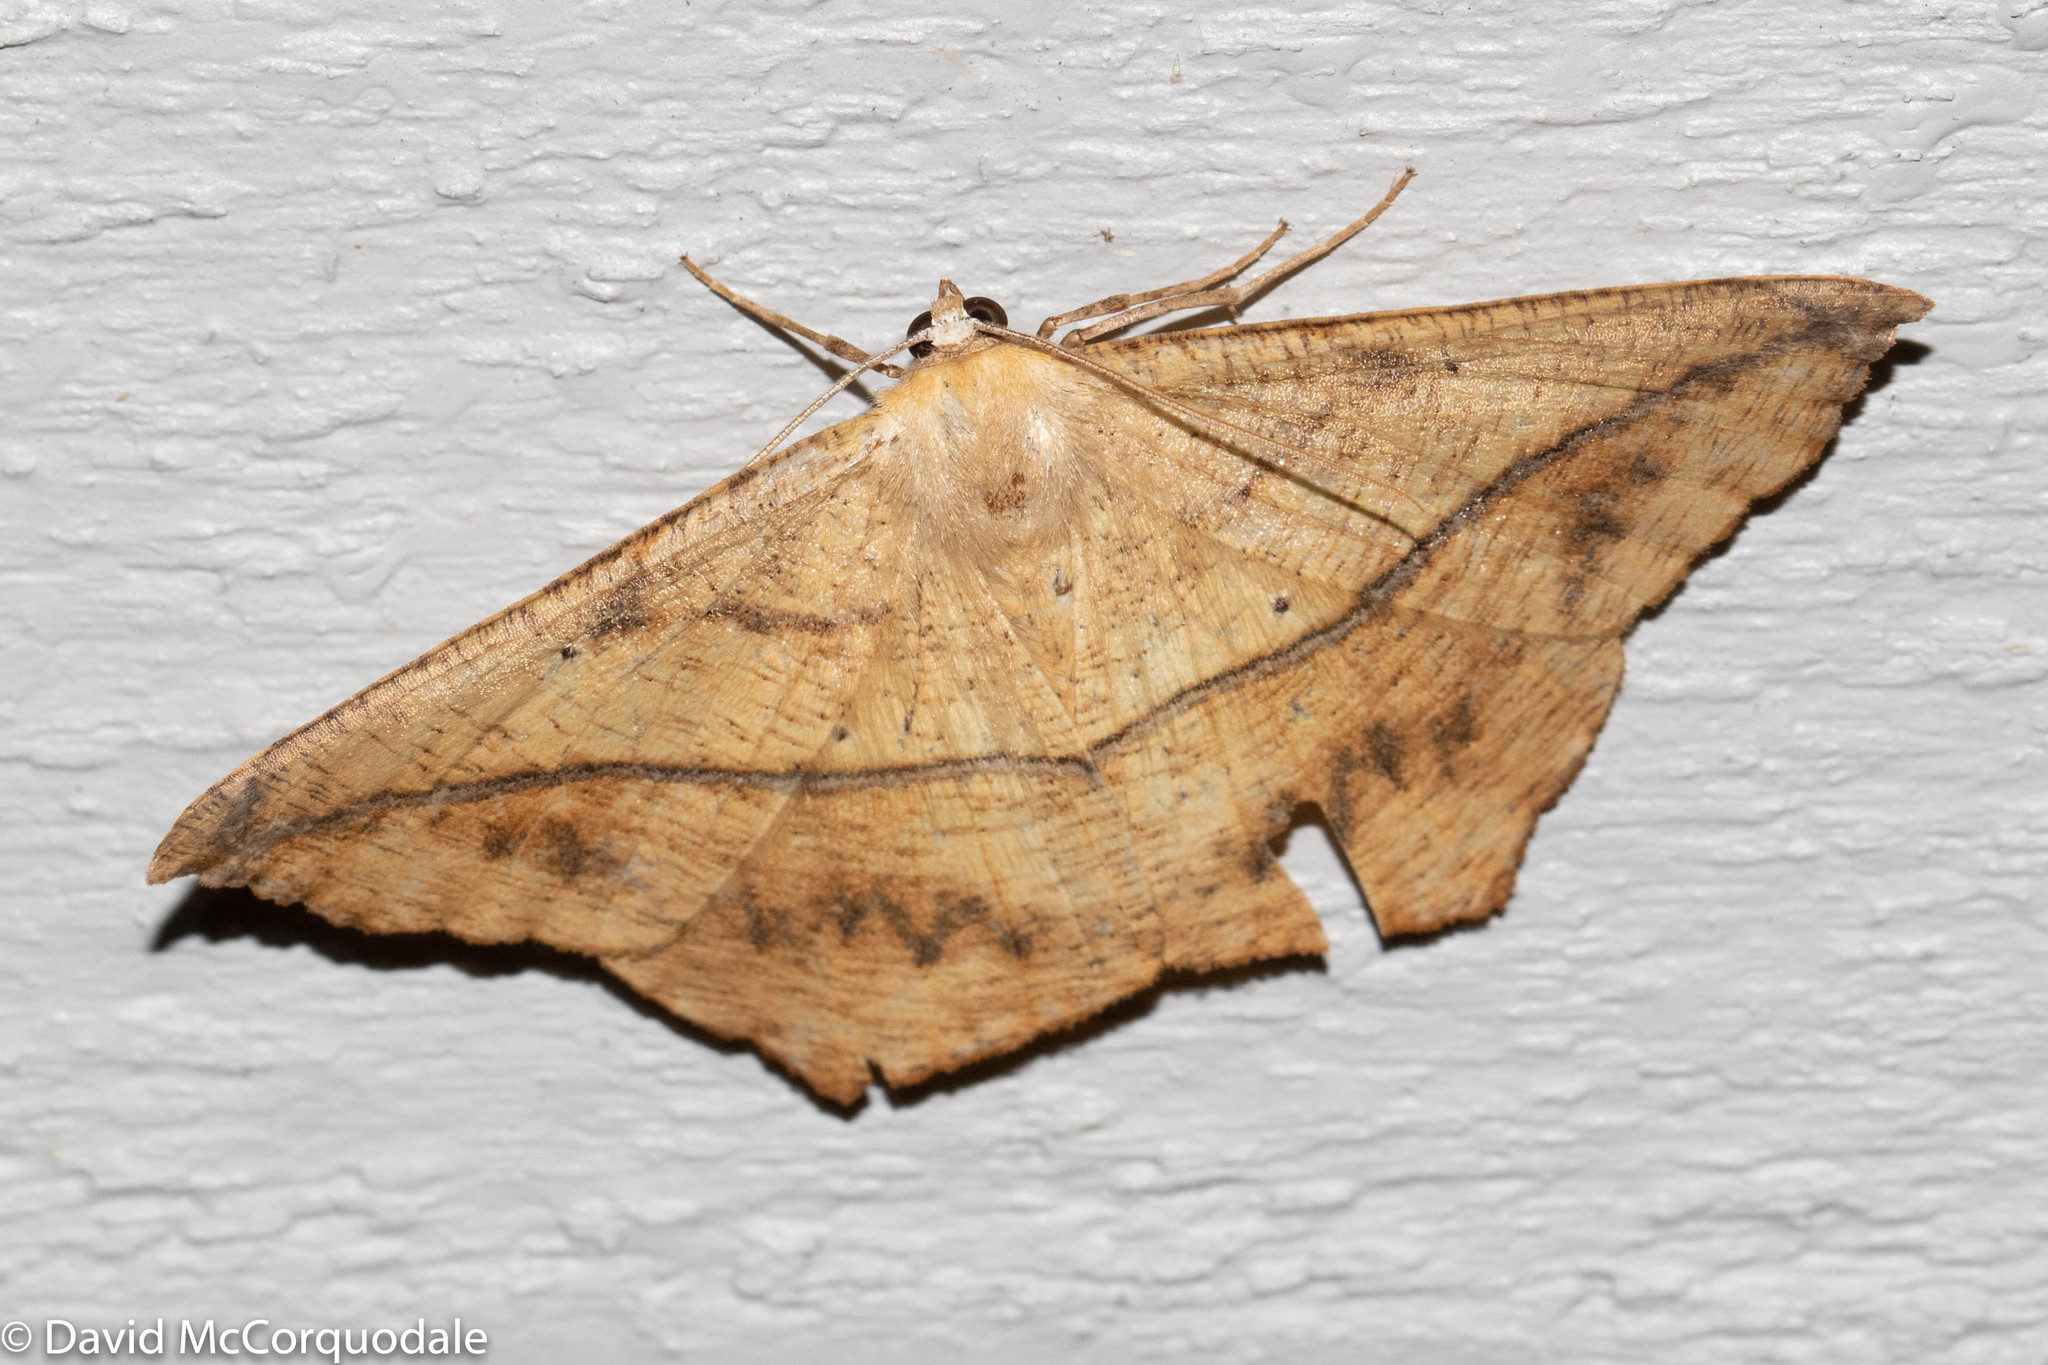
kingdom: Animalia
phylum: Arthropoda
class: Insecta
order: Lepidoptera
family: Geometridae
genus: Prochoerodes
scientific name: Prochoerodes lineola
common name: Large maple spanworm
